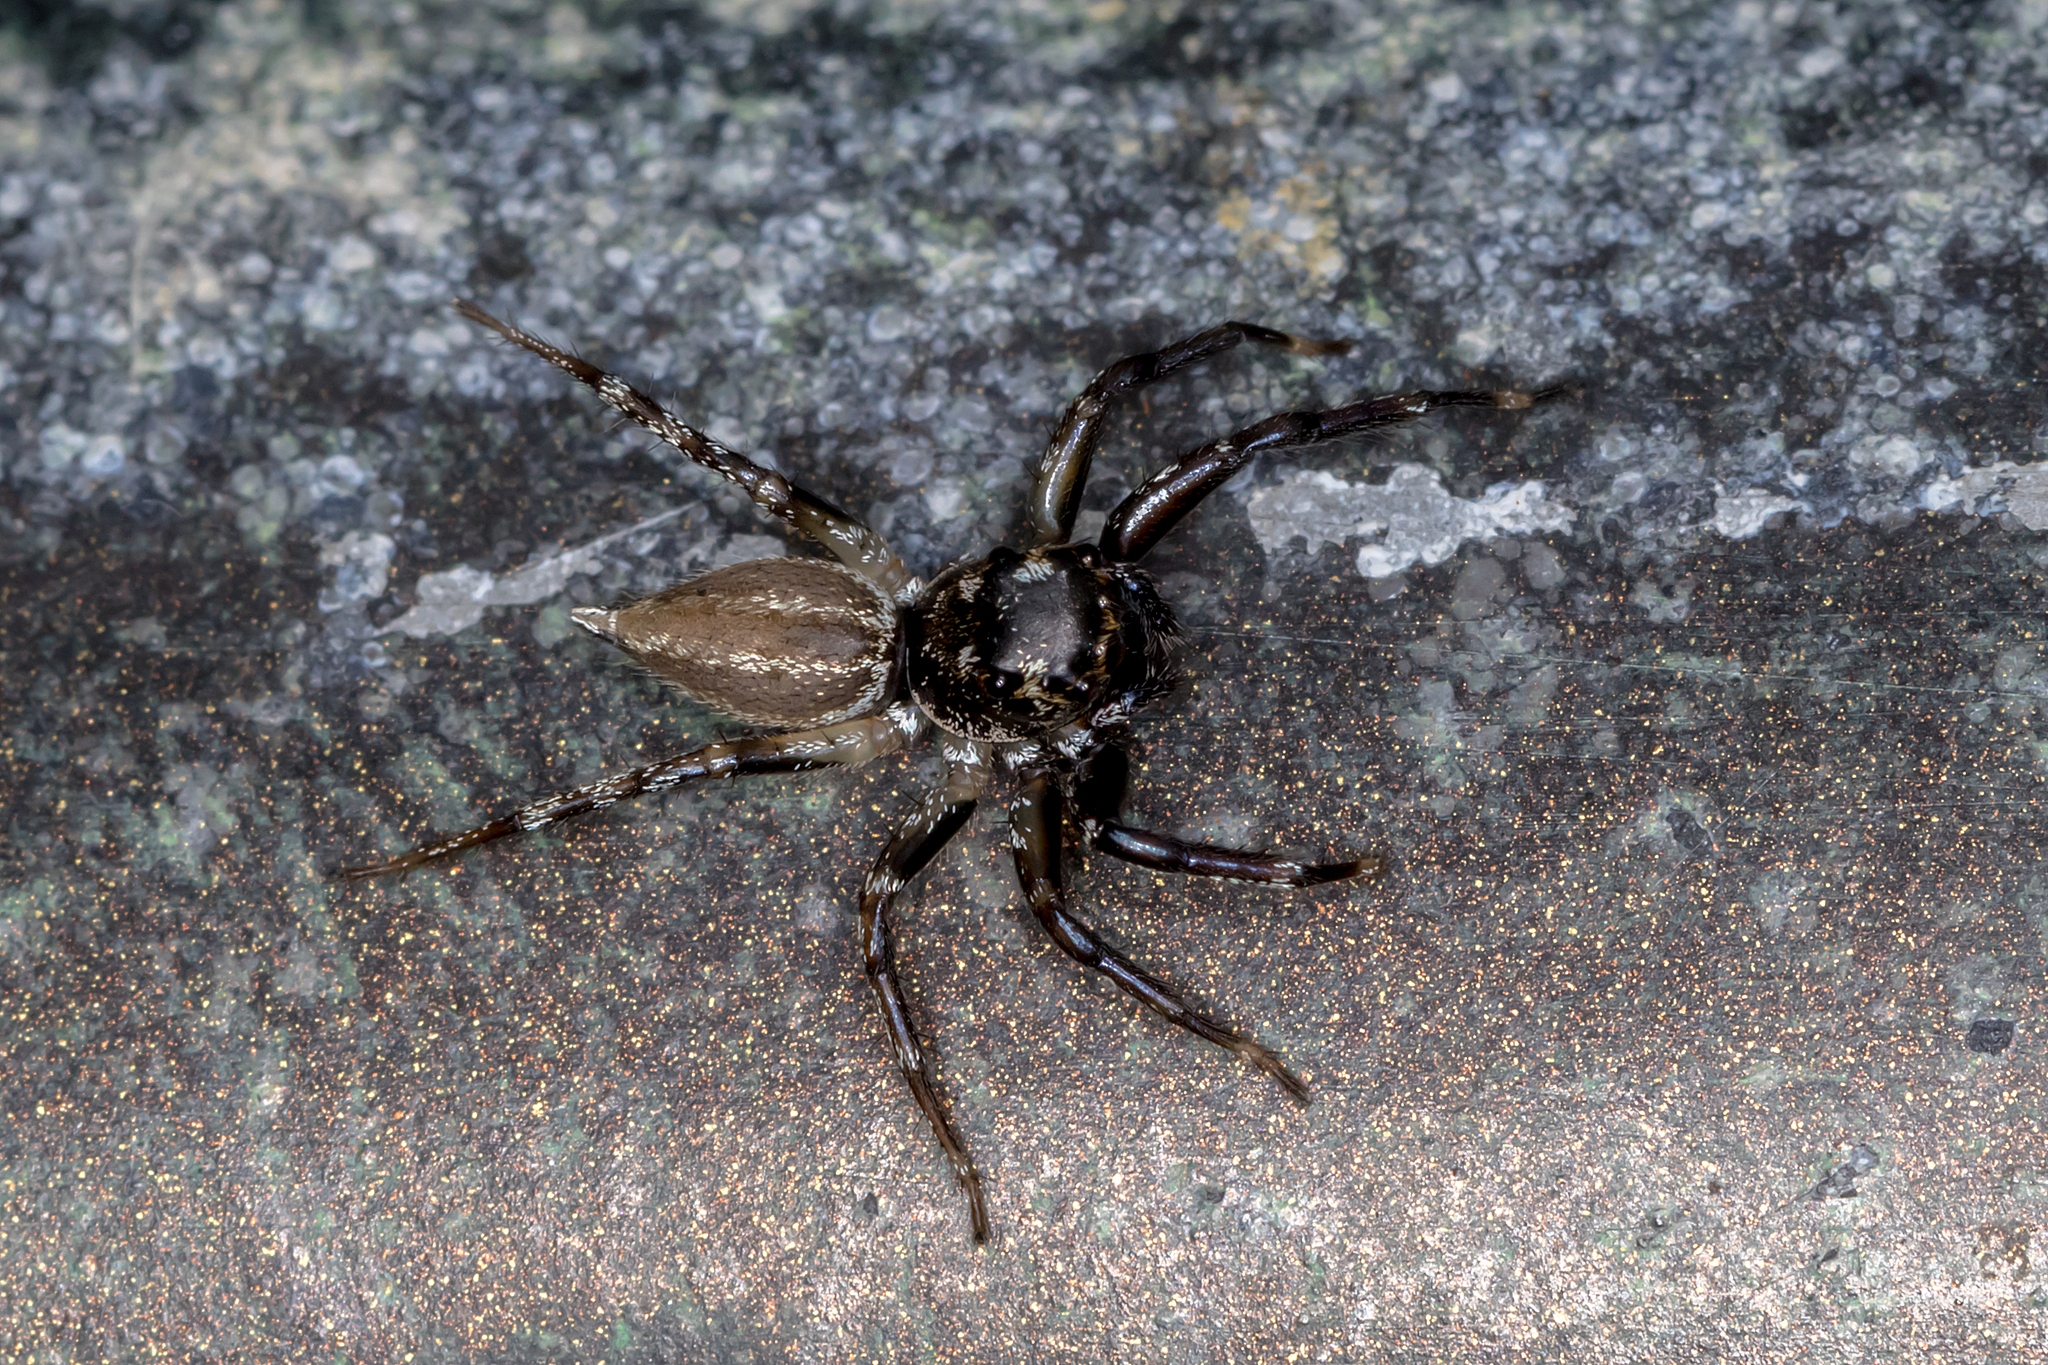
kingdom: Animalia
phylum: Arthropoda
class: Arachnida
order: Araneae
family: Salticidae
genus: Zenodorus
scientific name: Zenodorus swiftorum
